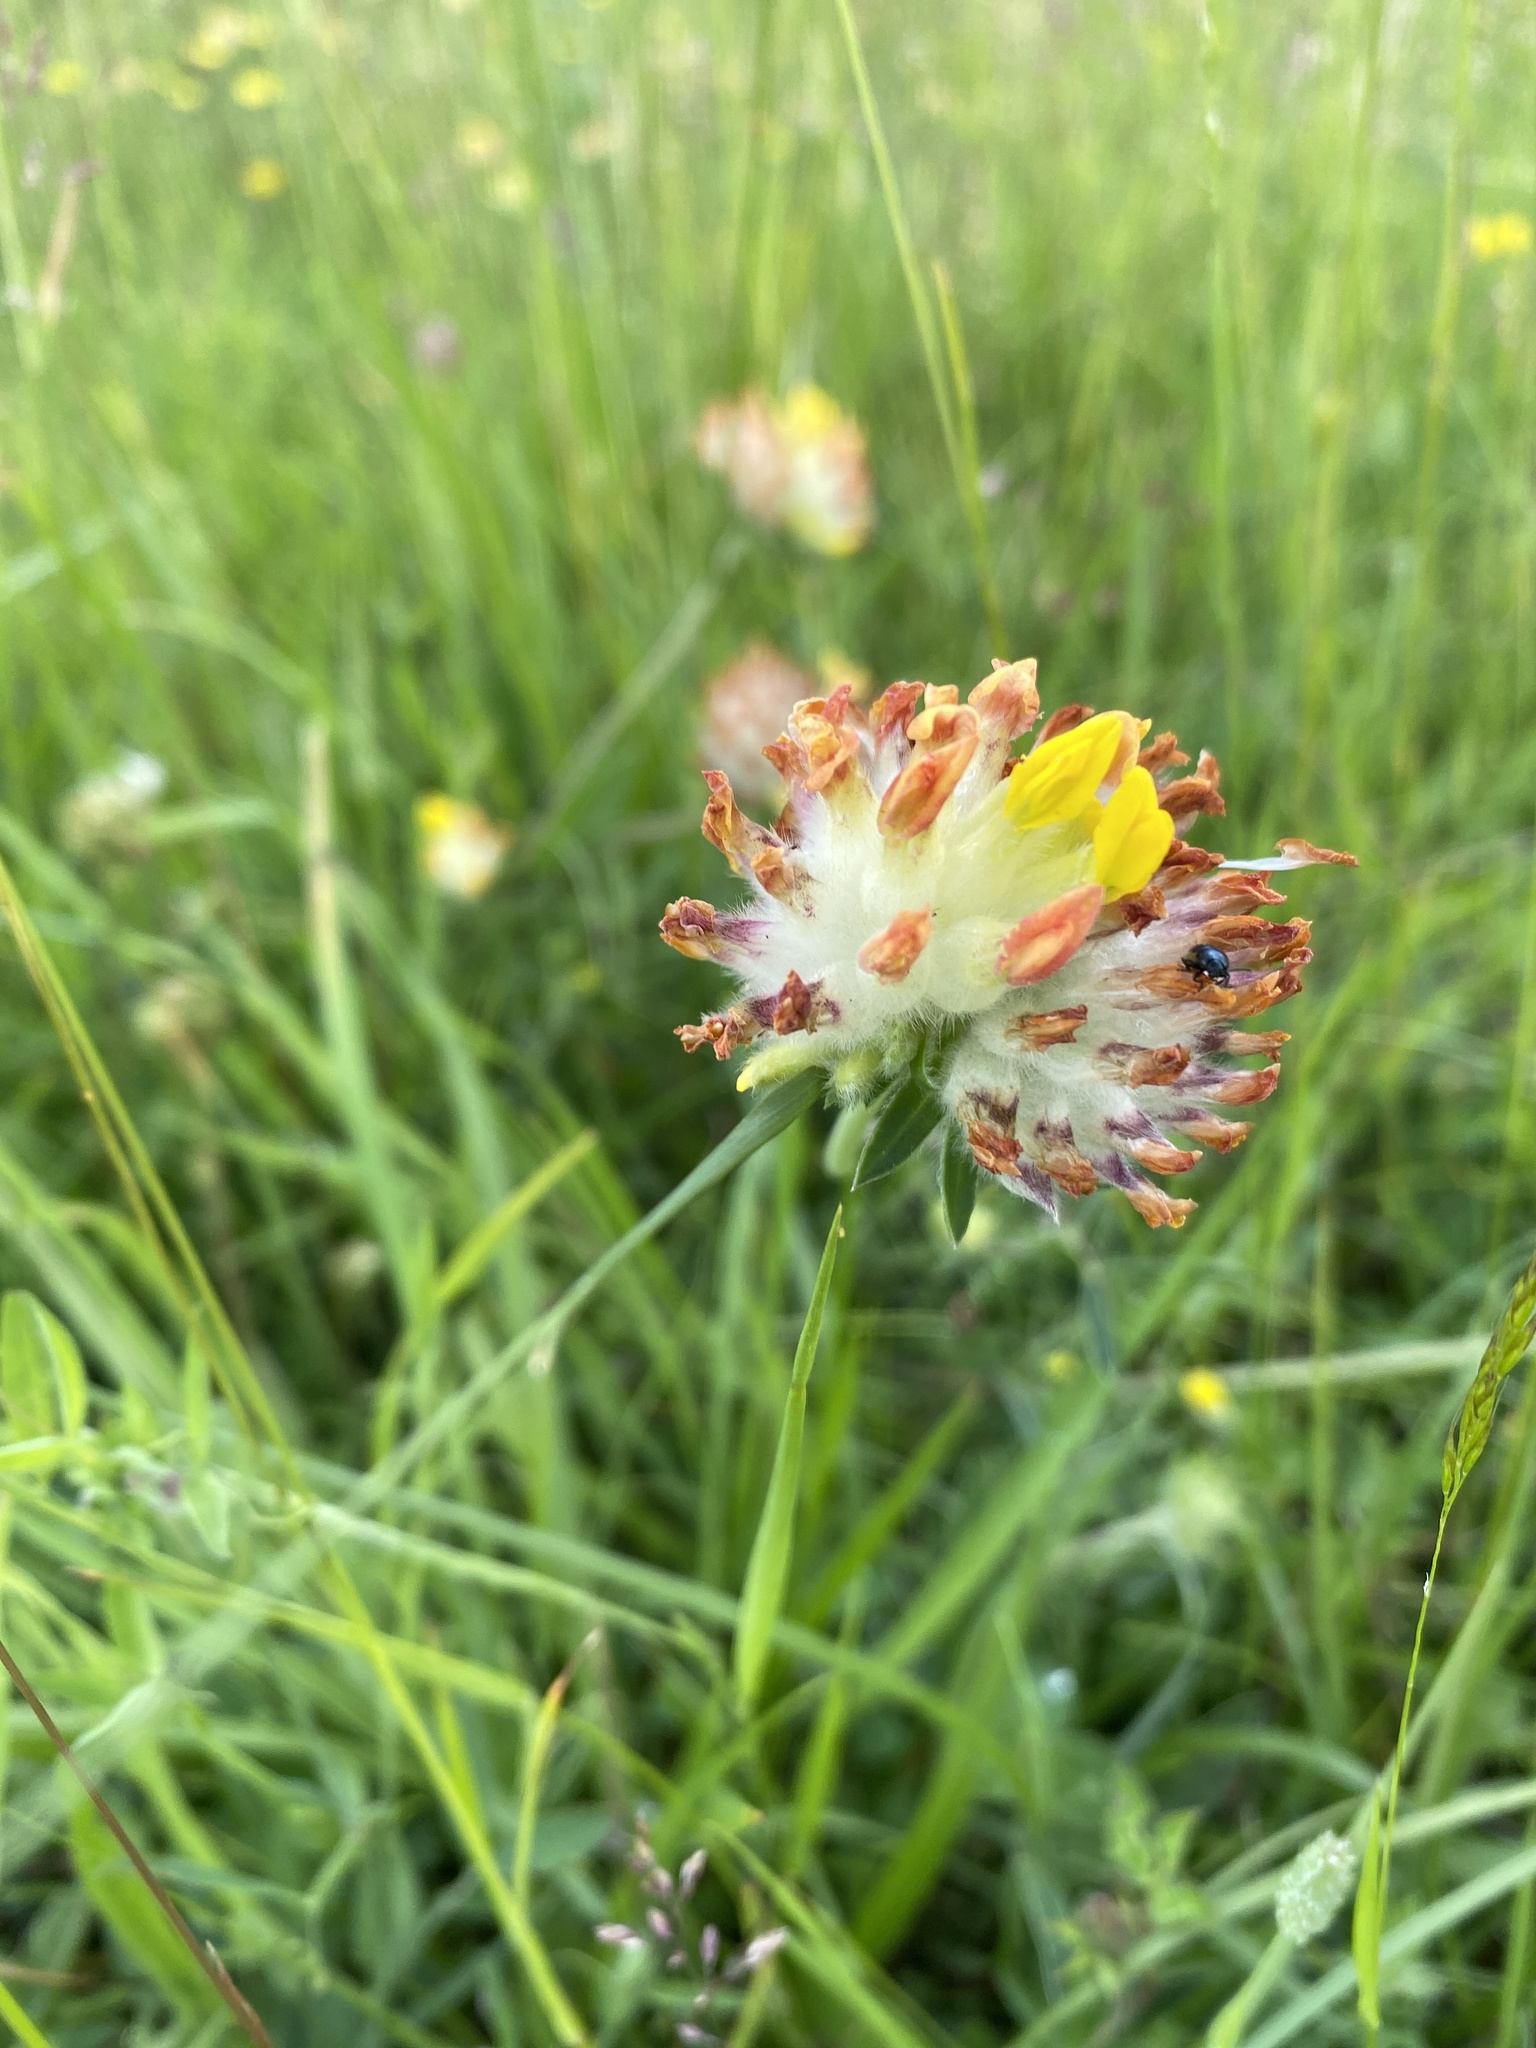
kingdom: Plantae
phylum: Tracheophyta
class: Magnoliopsida
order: Fabales
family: Fabaceae
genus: Anthyllis
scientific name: Anthyllis vulneraria
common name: Kidney vetch
